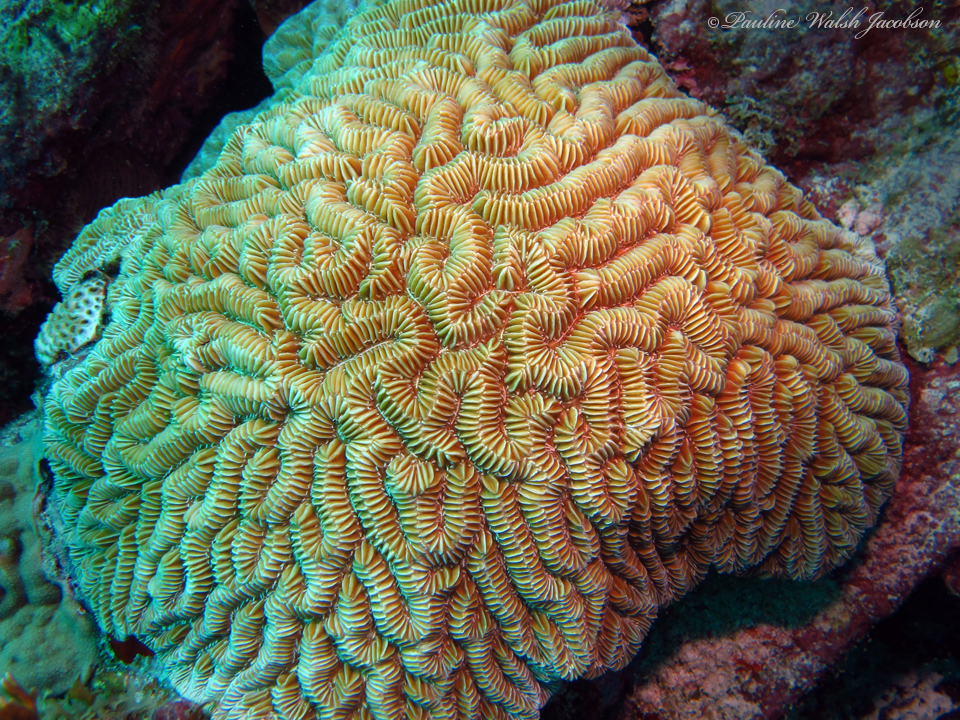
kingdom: Animalia
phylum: Cnidaria
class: Anthozoa
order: Scleractinia
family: Meandrinidae
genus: Meandrina
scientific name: Meandrina meandrites
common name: Maze coral
